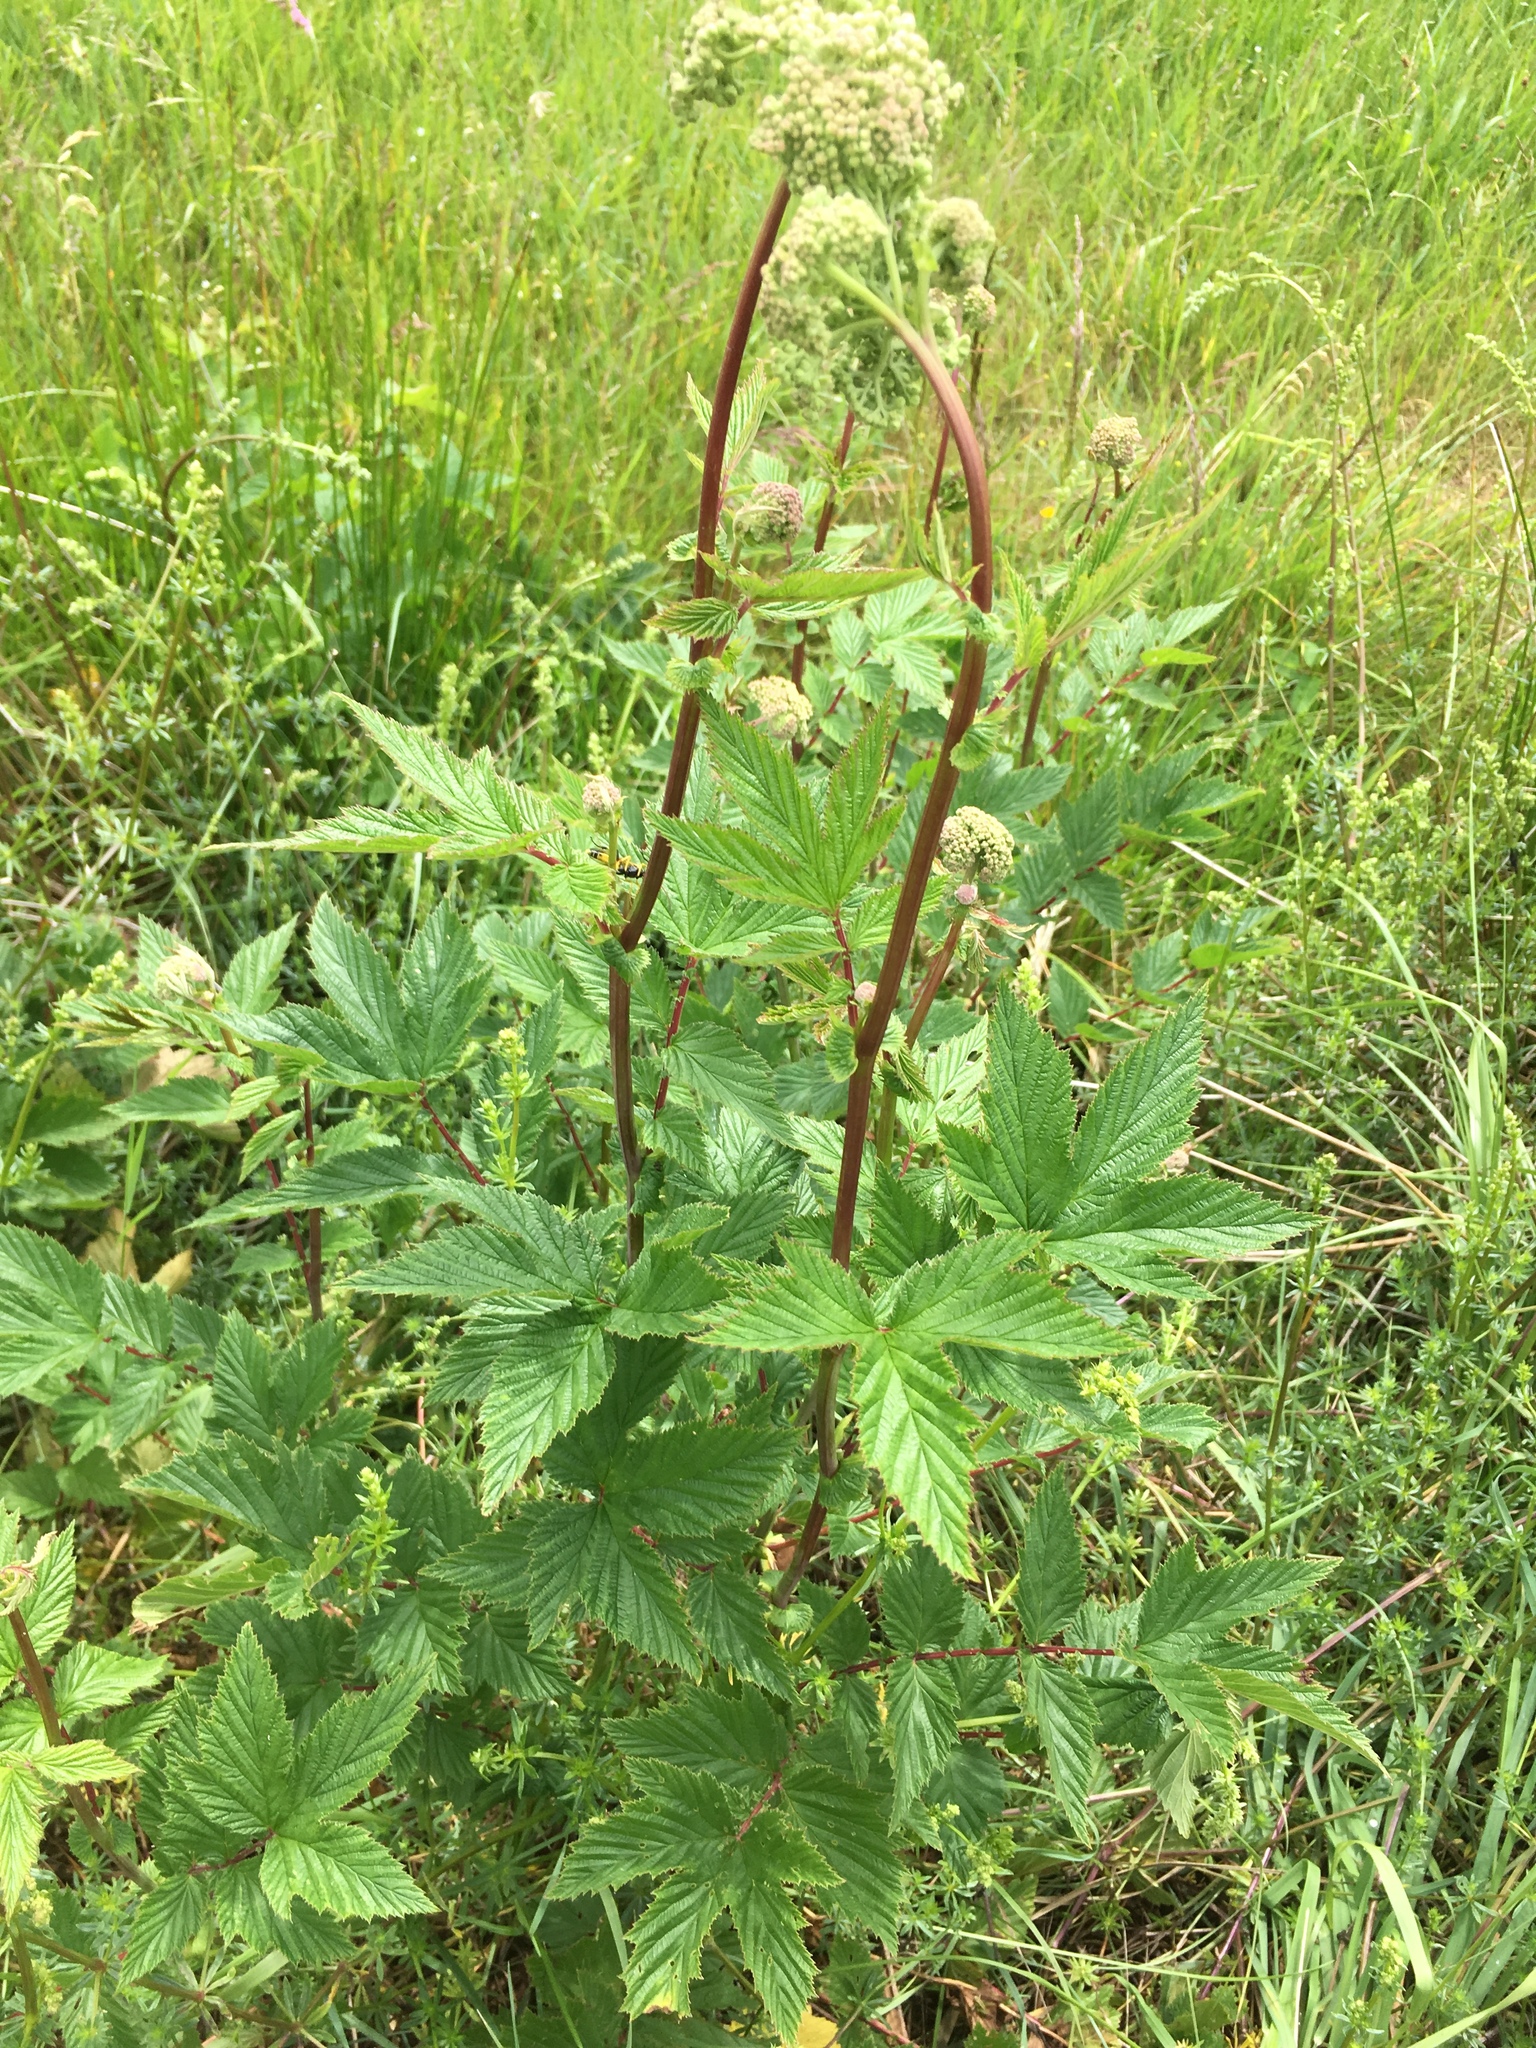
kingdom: Plantae
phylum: Tracheophyta
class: Magnoliopsida
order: Rosales
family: Rosaceae
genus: Filipendula
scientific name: Filipendula ulmaria
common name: Meadowsweet
